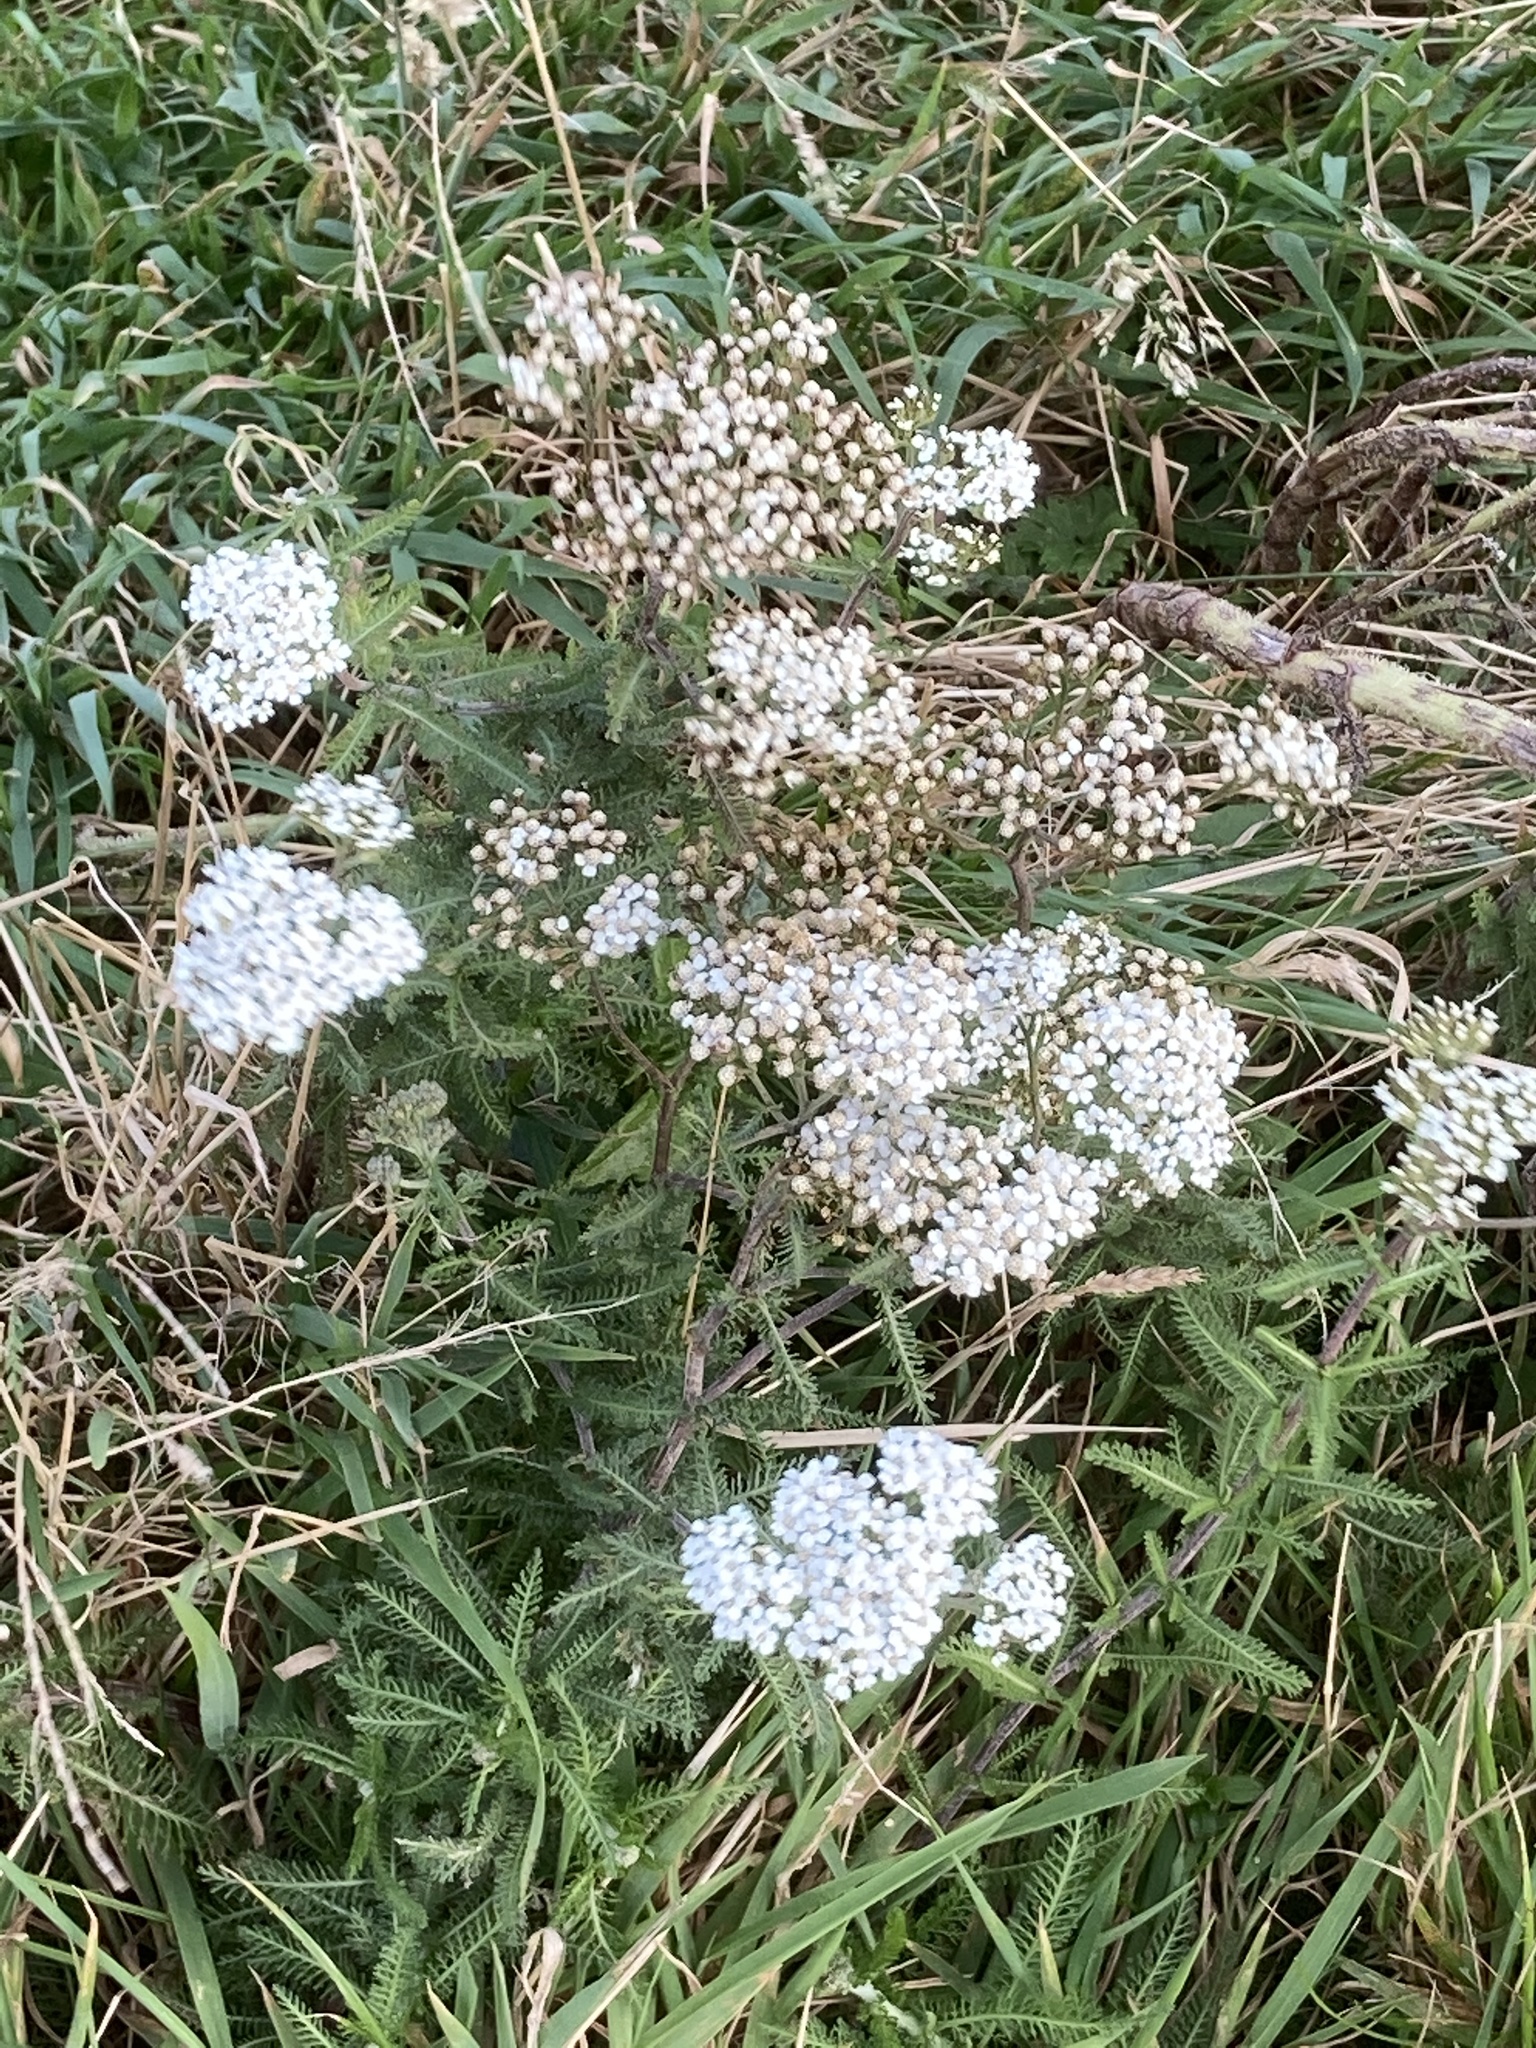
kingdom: Plantae
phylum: Tracheophyta
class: Magnoliopsida
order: Asterales
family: Asteraceae
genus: Achillea
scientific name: Achillea millefolium
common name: Yarrow
